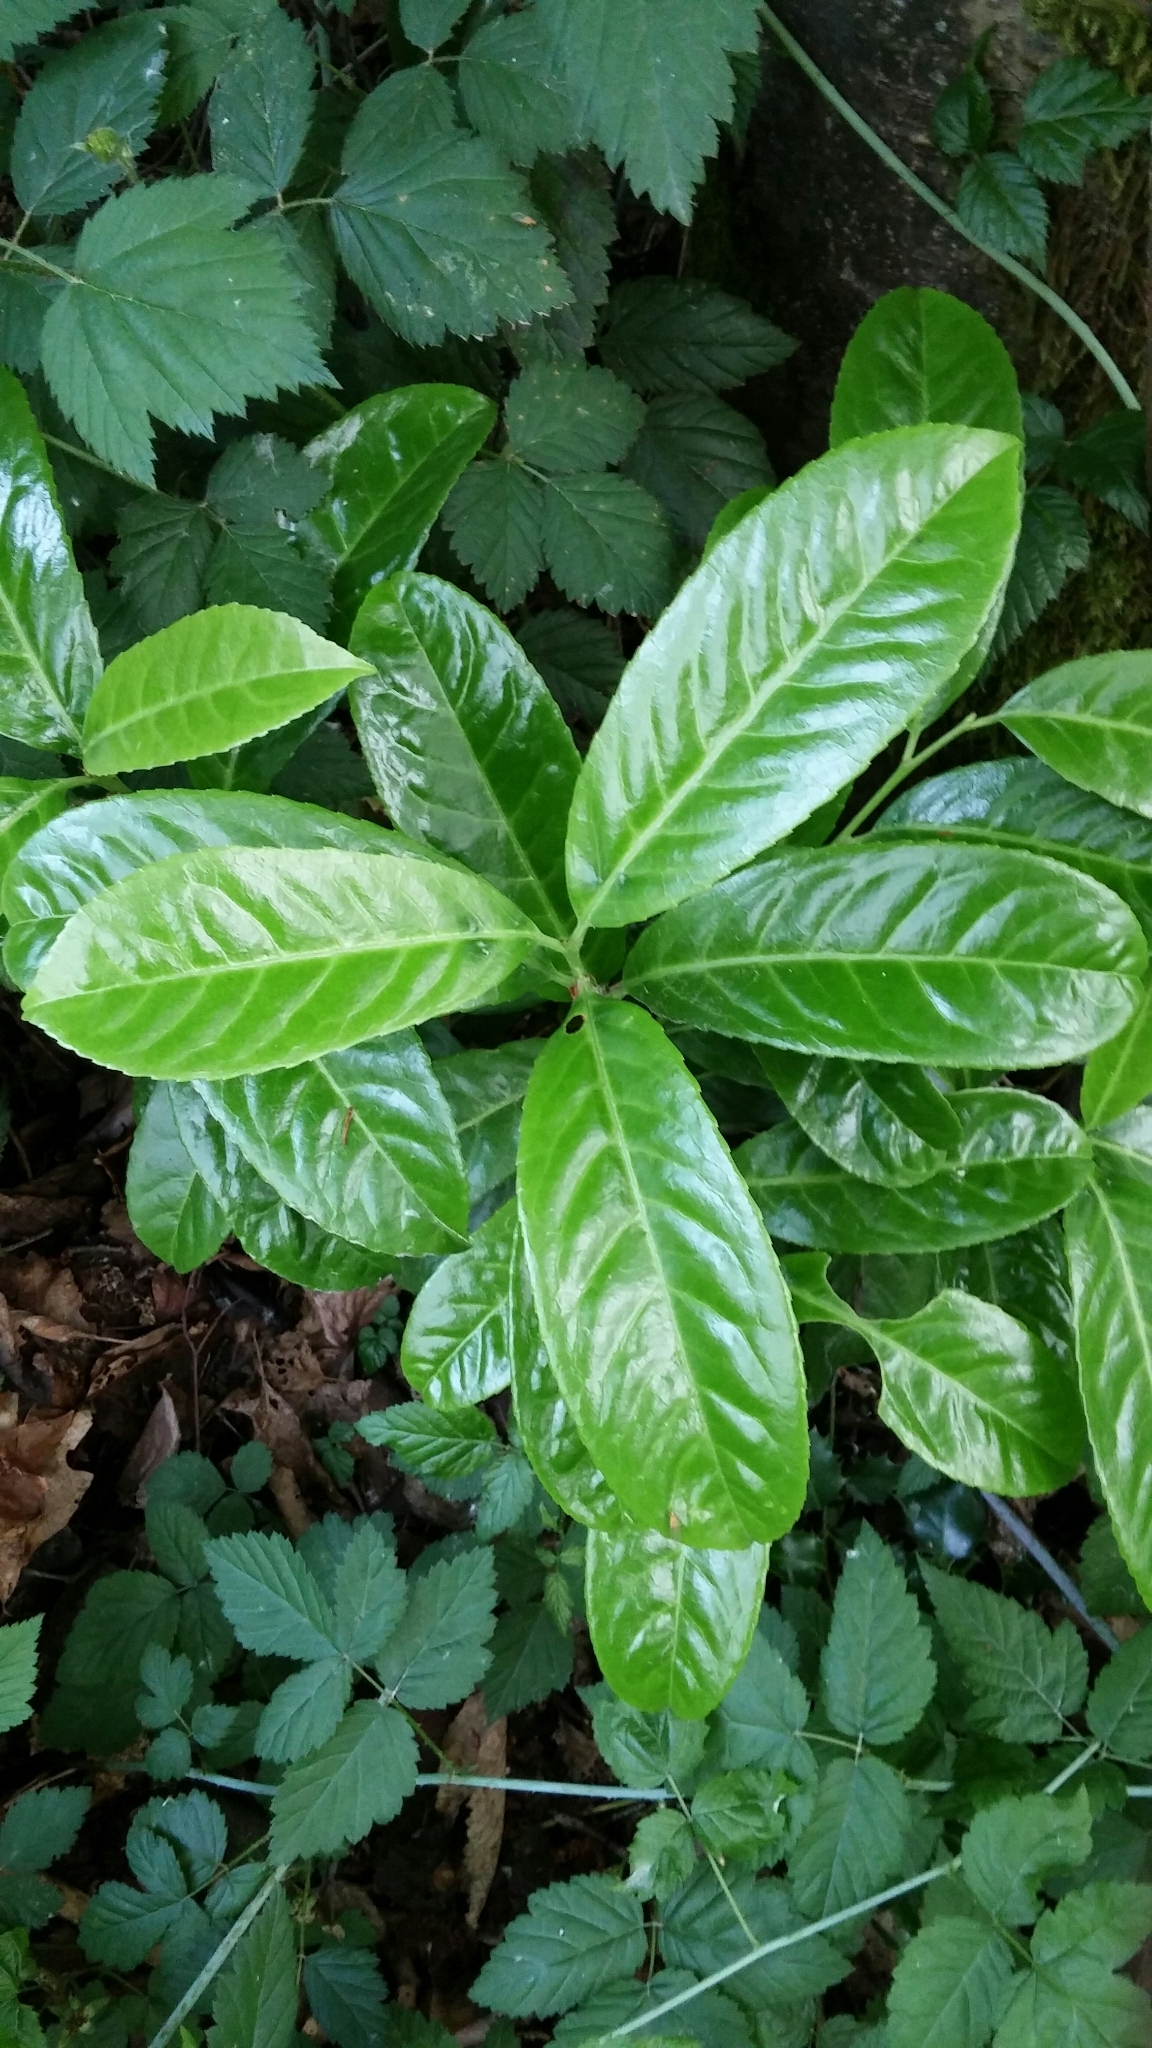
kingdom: Plantae
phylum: Tracheophyta
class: Magnoliopsida
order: Rosales
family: Rosaceae
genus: Prunus
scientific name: Prunus laurocerasus
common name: Cherry laurel
